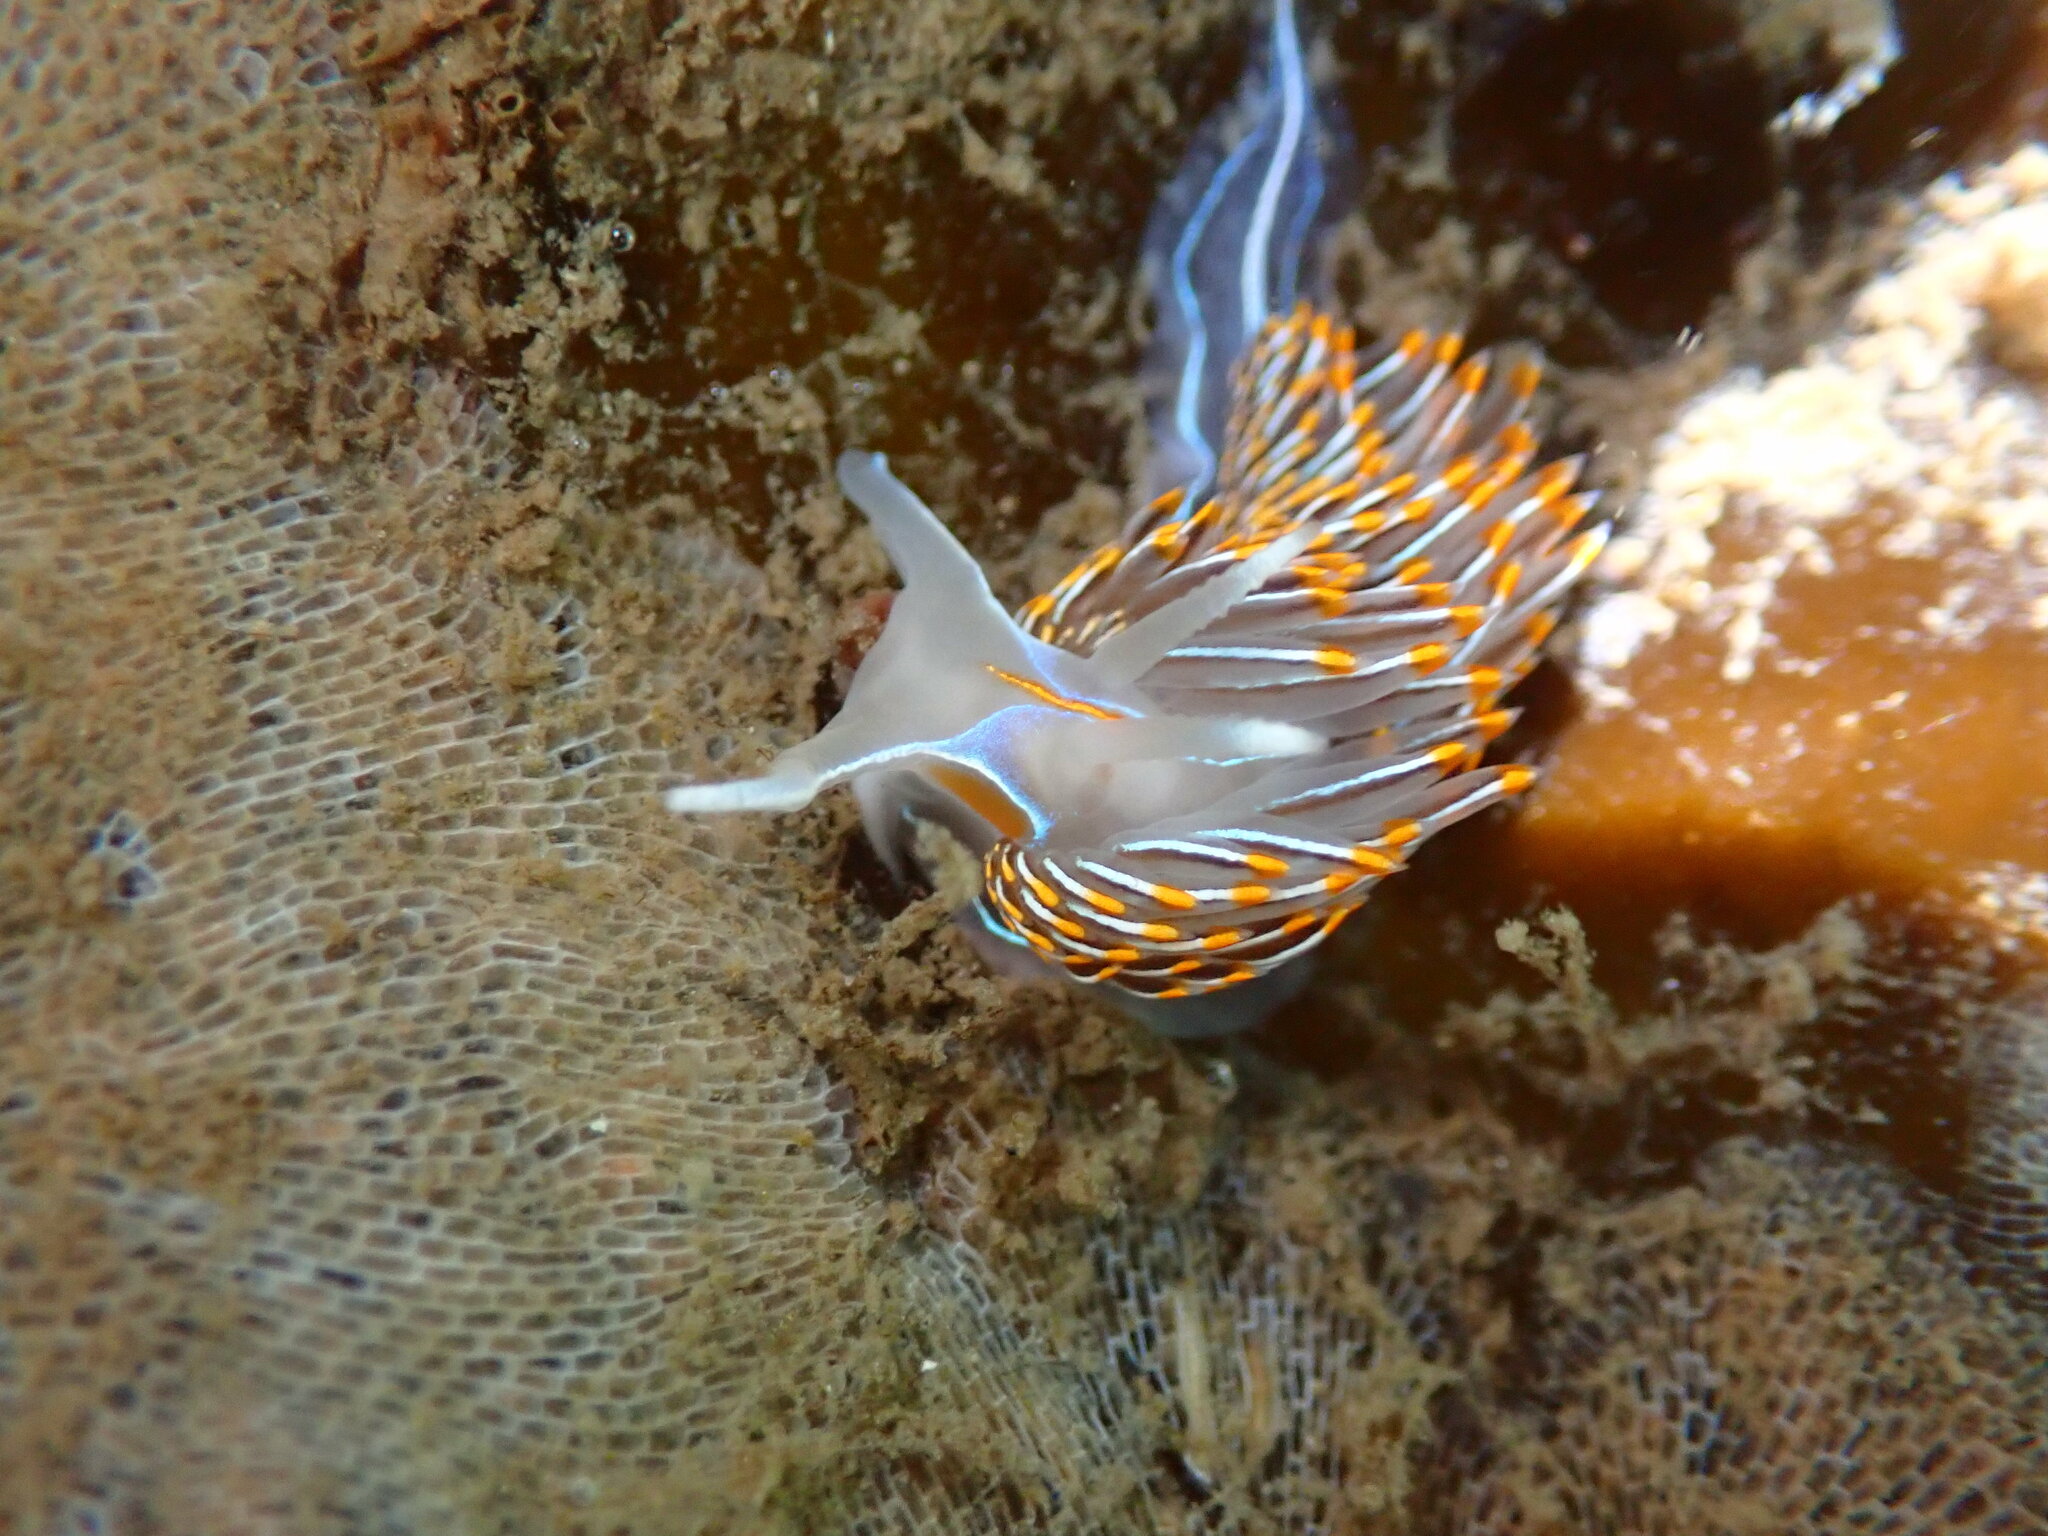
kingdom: Animalia
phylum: Mollusca
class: Gastropoda
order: Nudibranchia
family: Myrrhinidae
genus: Hermissenda
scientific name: Hermissenda crassicornis
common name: Hermissenda
